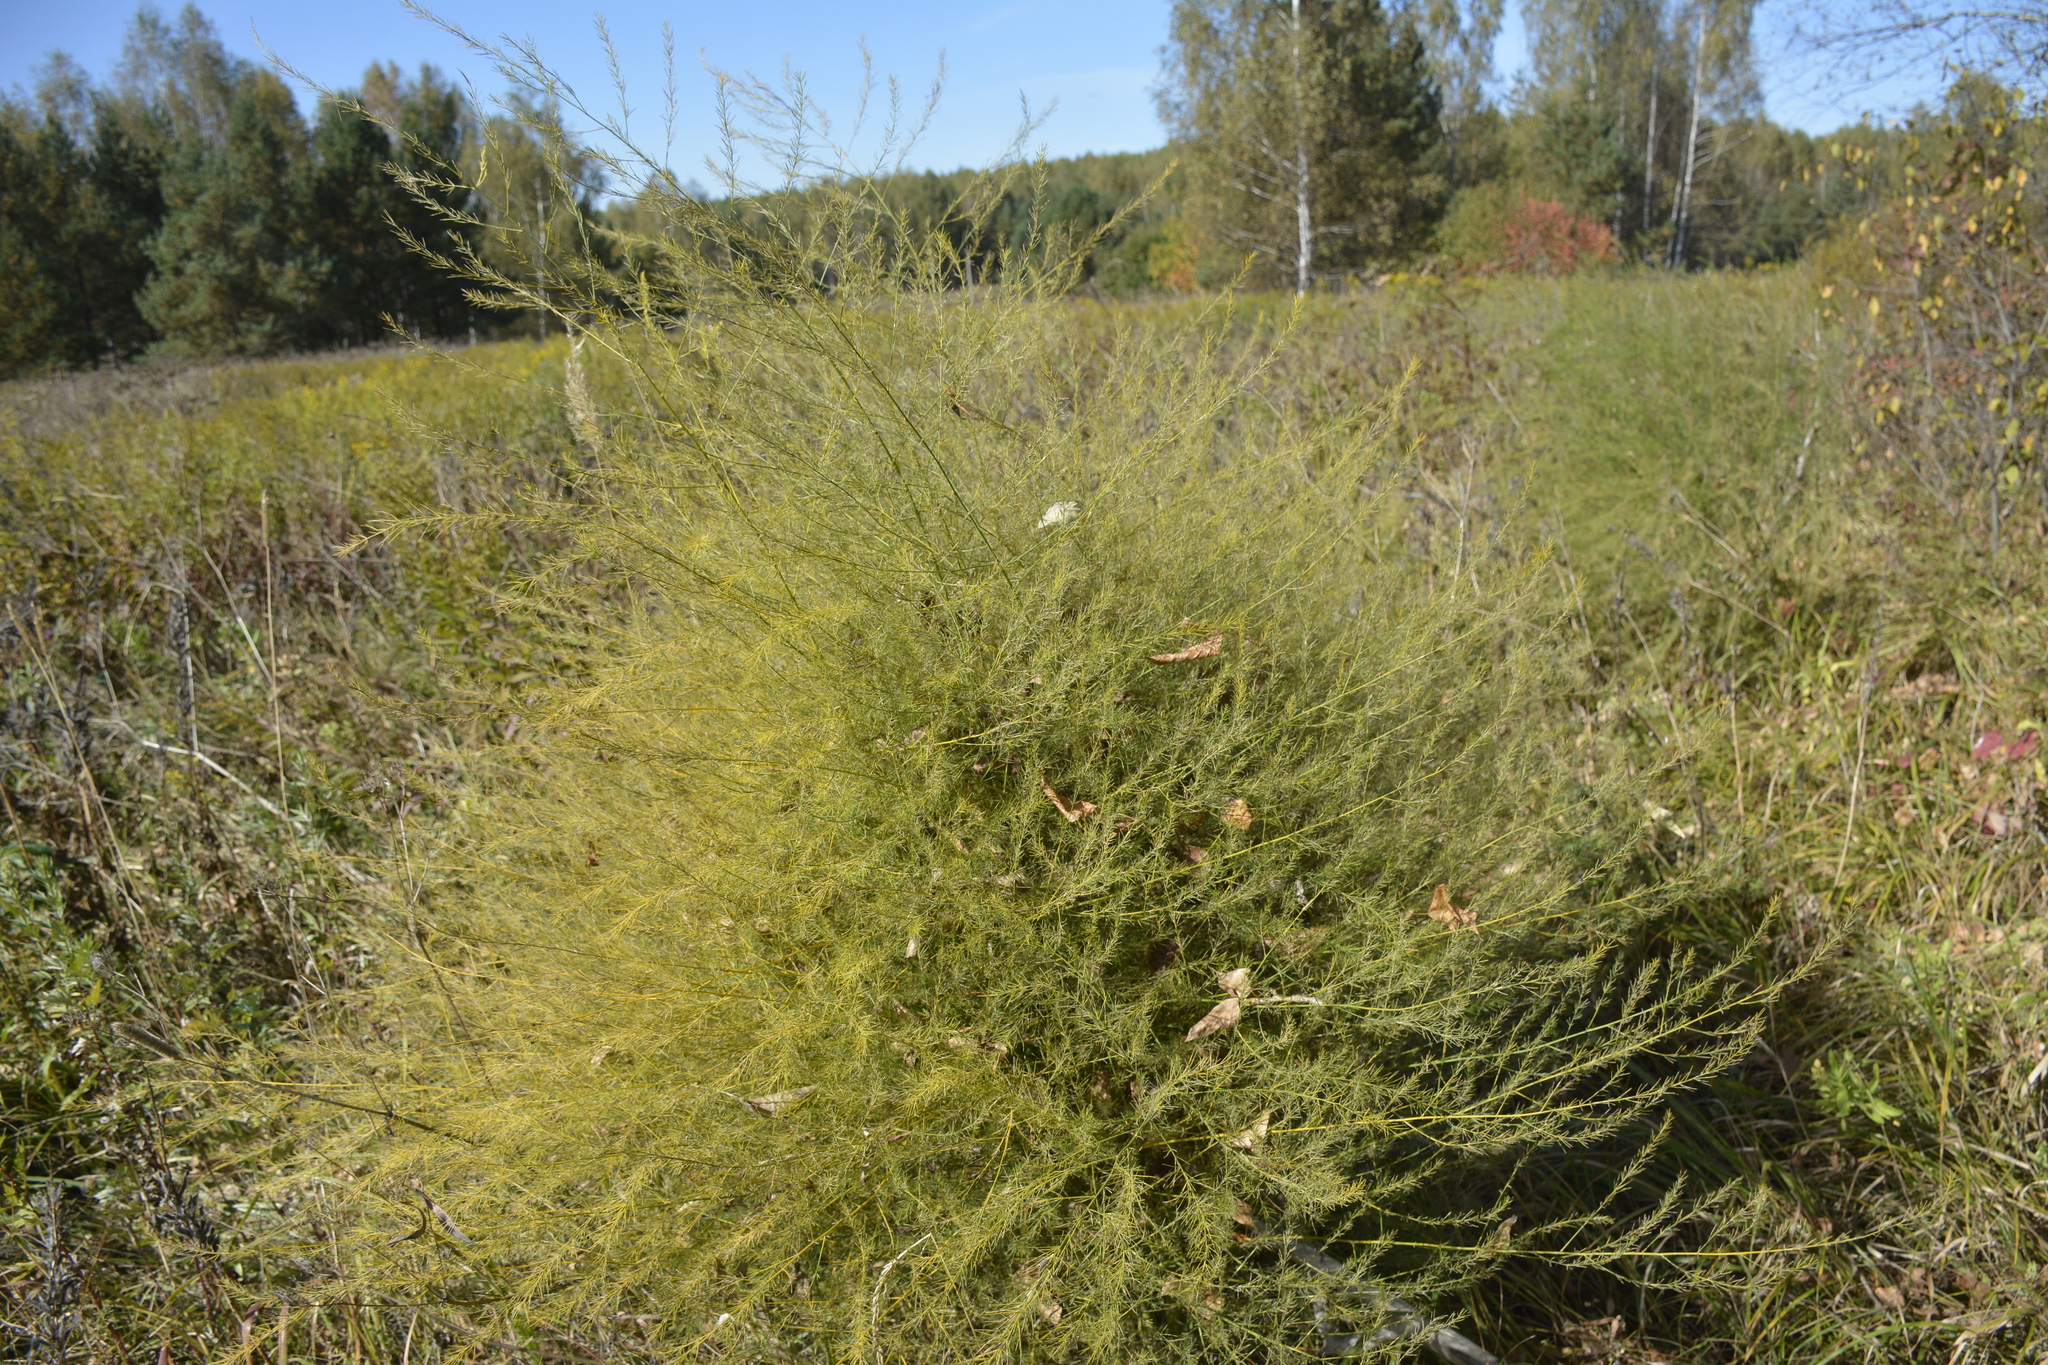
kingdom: Plantae
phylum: Tracheophyta
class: Liliopsida
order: Asparagales
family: Asparagaceae
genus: Asparagus
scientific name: Asparagus officinalis
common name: Garden asparagus
